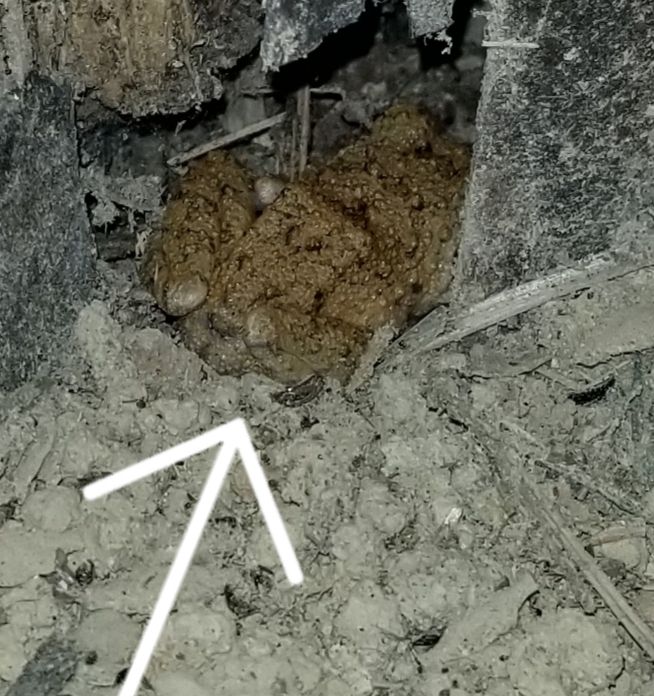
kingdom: Animalia
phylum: Chordata
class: Amphibia
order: Anura
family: Craugastoridae
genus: Oreobates
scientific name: Oreobates quixensis
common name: Common big-headed frog
